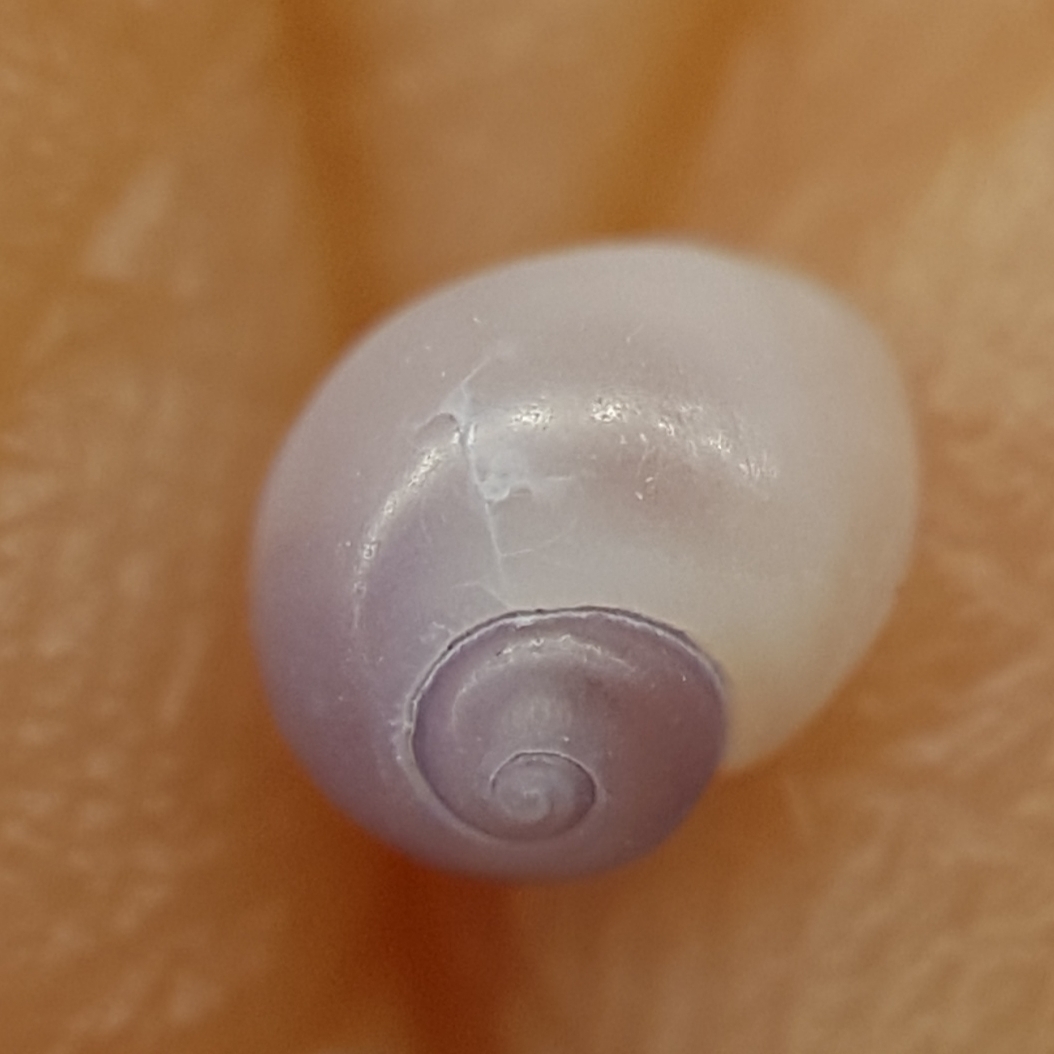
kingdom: Animalia
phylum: Mollusca
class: Gastropoda
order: Littorinimorpha
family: Littorinidae
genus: Lacuna
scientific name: Lacuna parva
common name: Least chink shell
